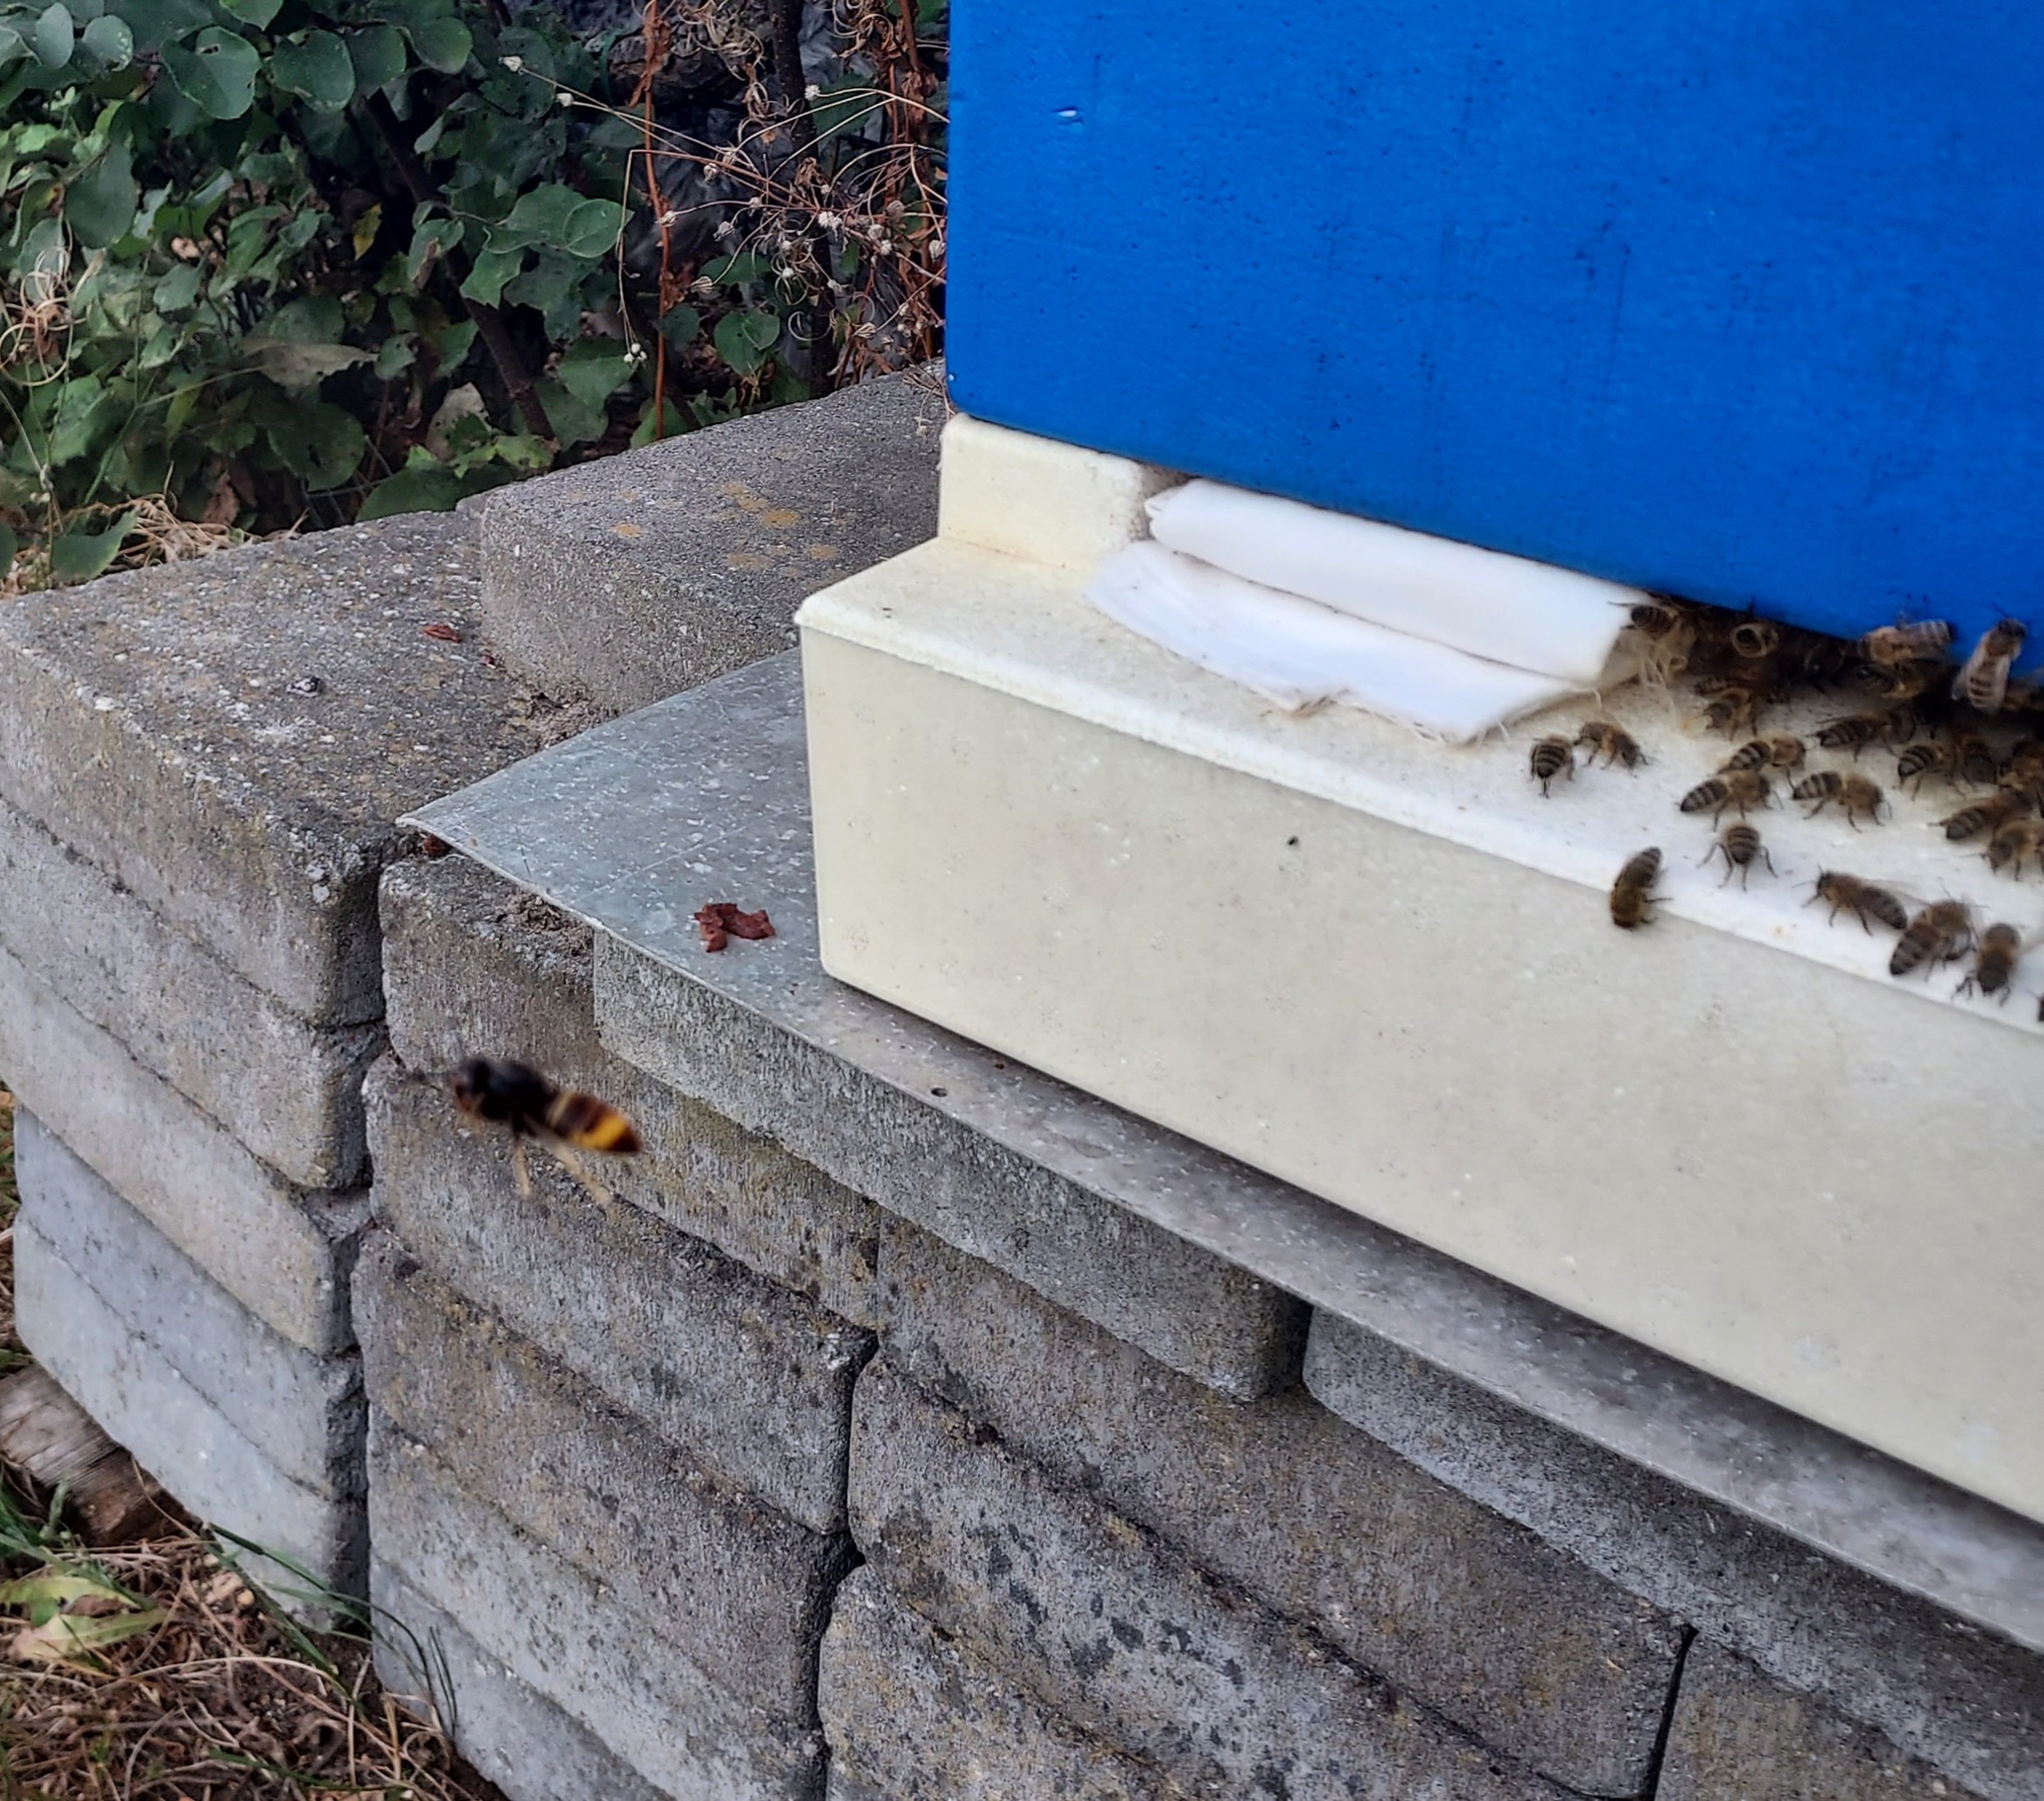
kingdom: Animalia
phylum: Arthropoda
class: Insecta
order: Hymenoptera
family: Vespidae
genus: Vespa
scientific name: Vespa velutina
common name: Asian hornet
